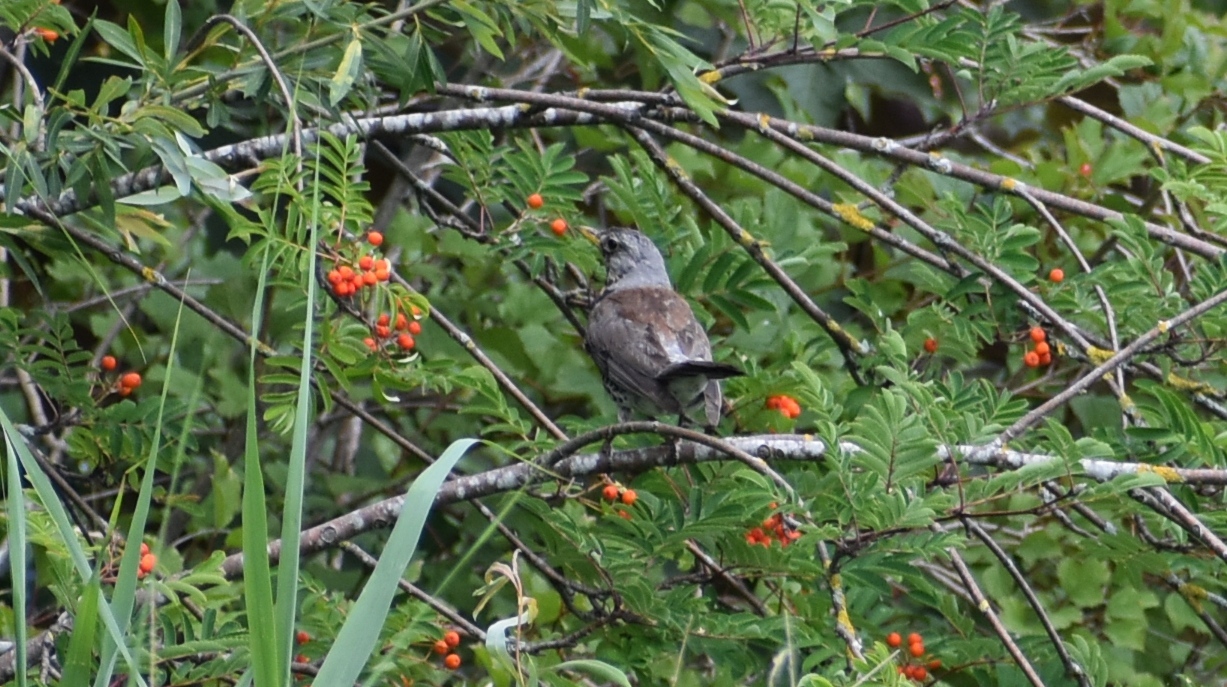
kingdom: Animalia
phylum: Chordata
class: Aves
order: Passeriformes
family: Turdidae
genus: Turdus
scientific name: Turdus pilaris
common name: Fieldfare
